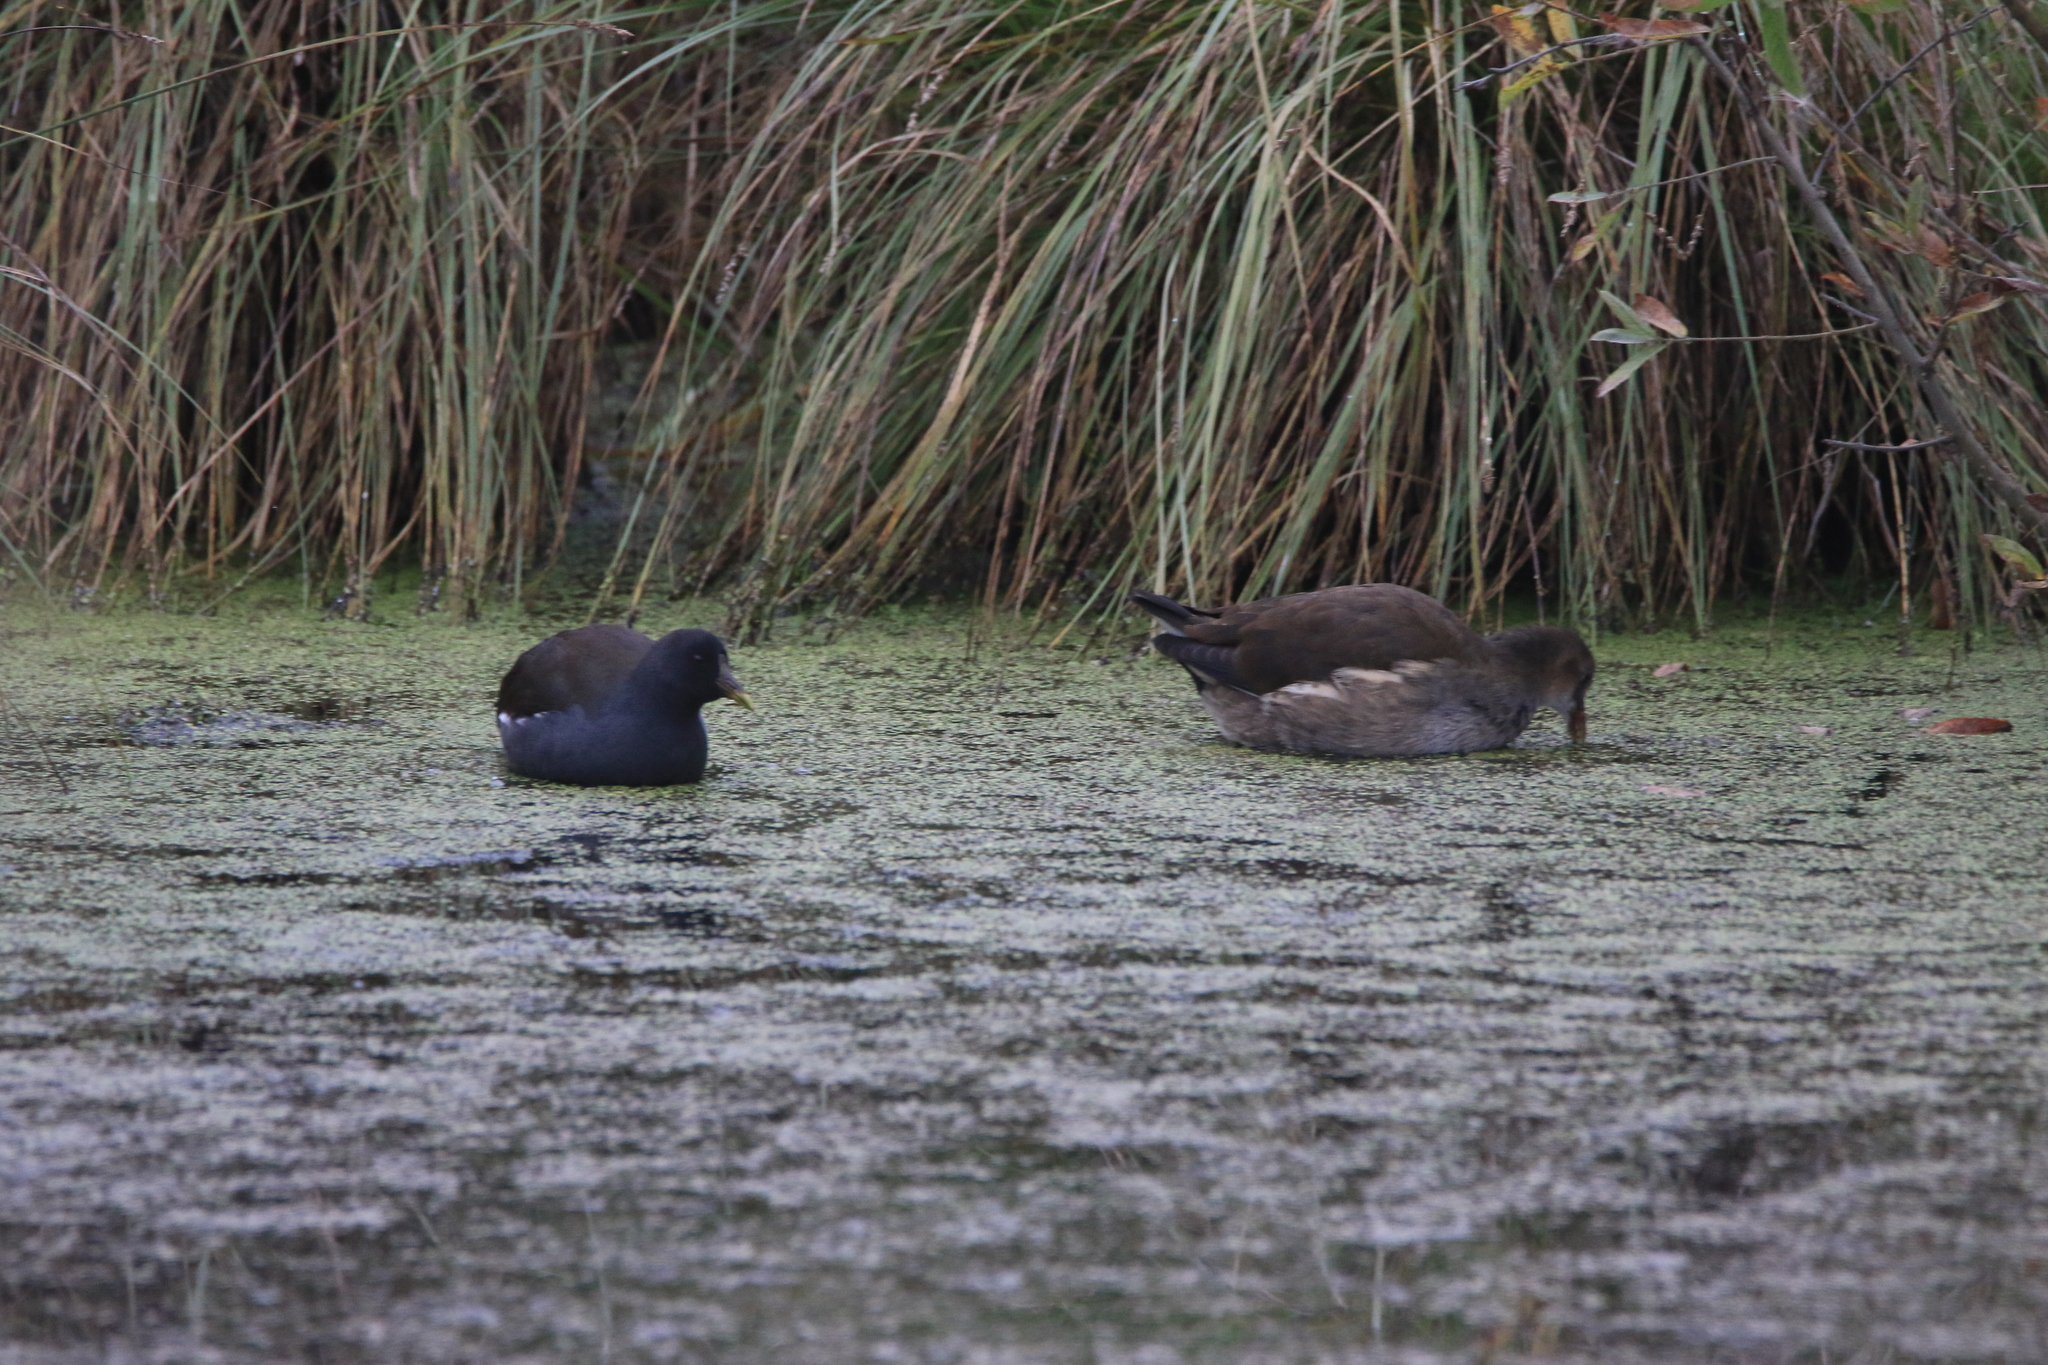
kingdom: Animalia
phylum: Chordata
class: Aves
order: Gruiformes
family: Rallidae
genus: Gallinula
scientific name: Gallinula chloropus
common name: Common moorhen
